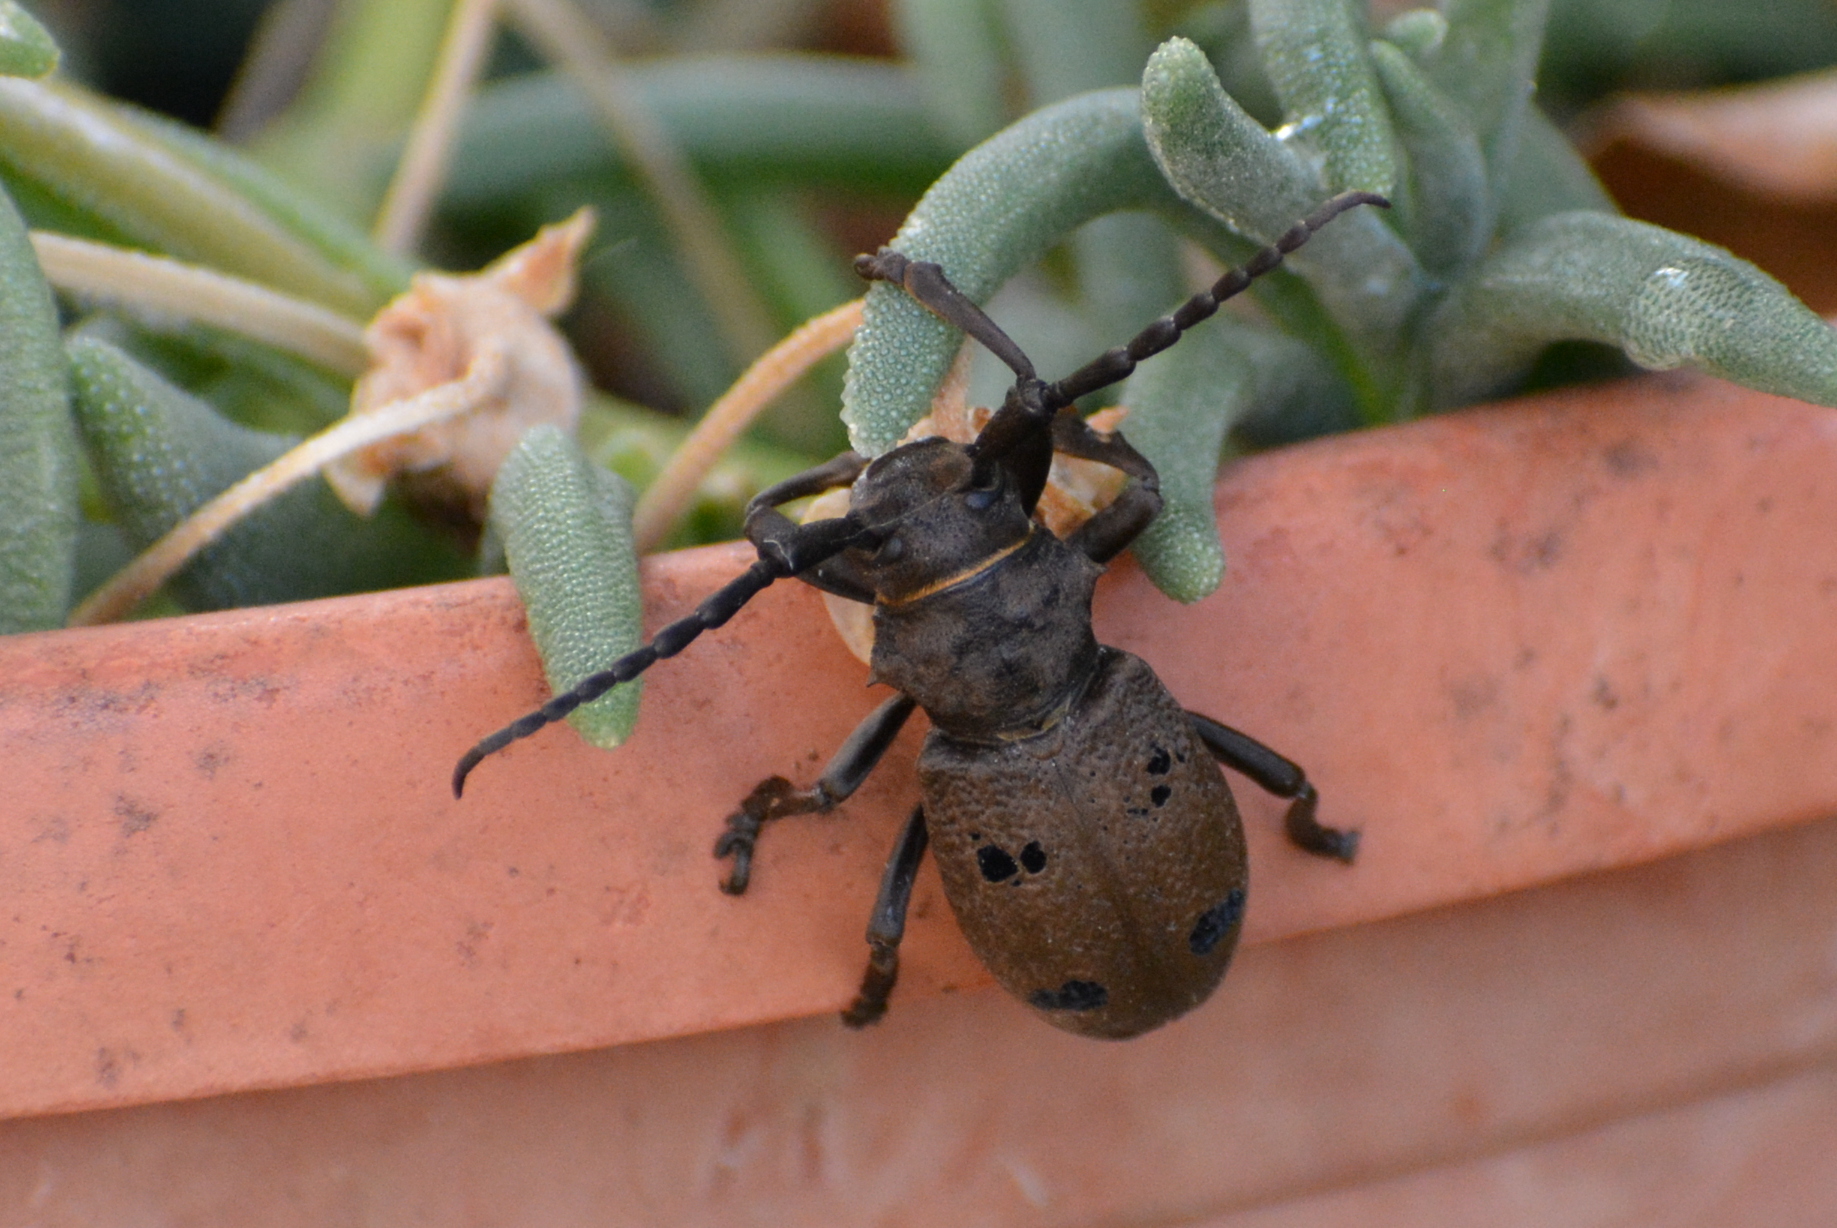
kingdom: Animalia
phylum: Arthropoda
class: Insecta
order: Coleoptera
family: Cerambycidae
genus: Herophila
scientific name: Herophila tristis
